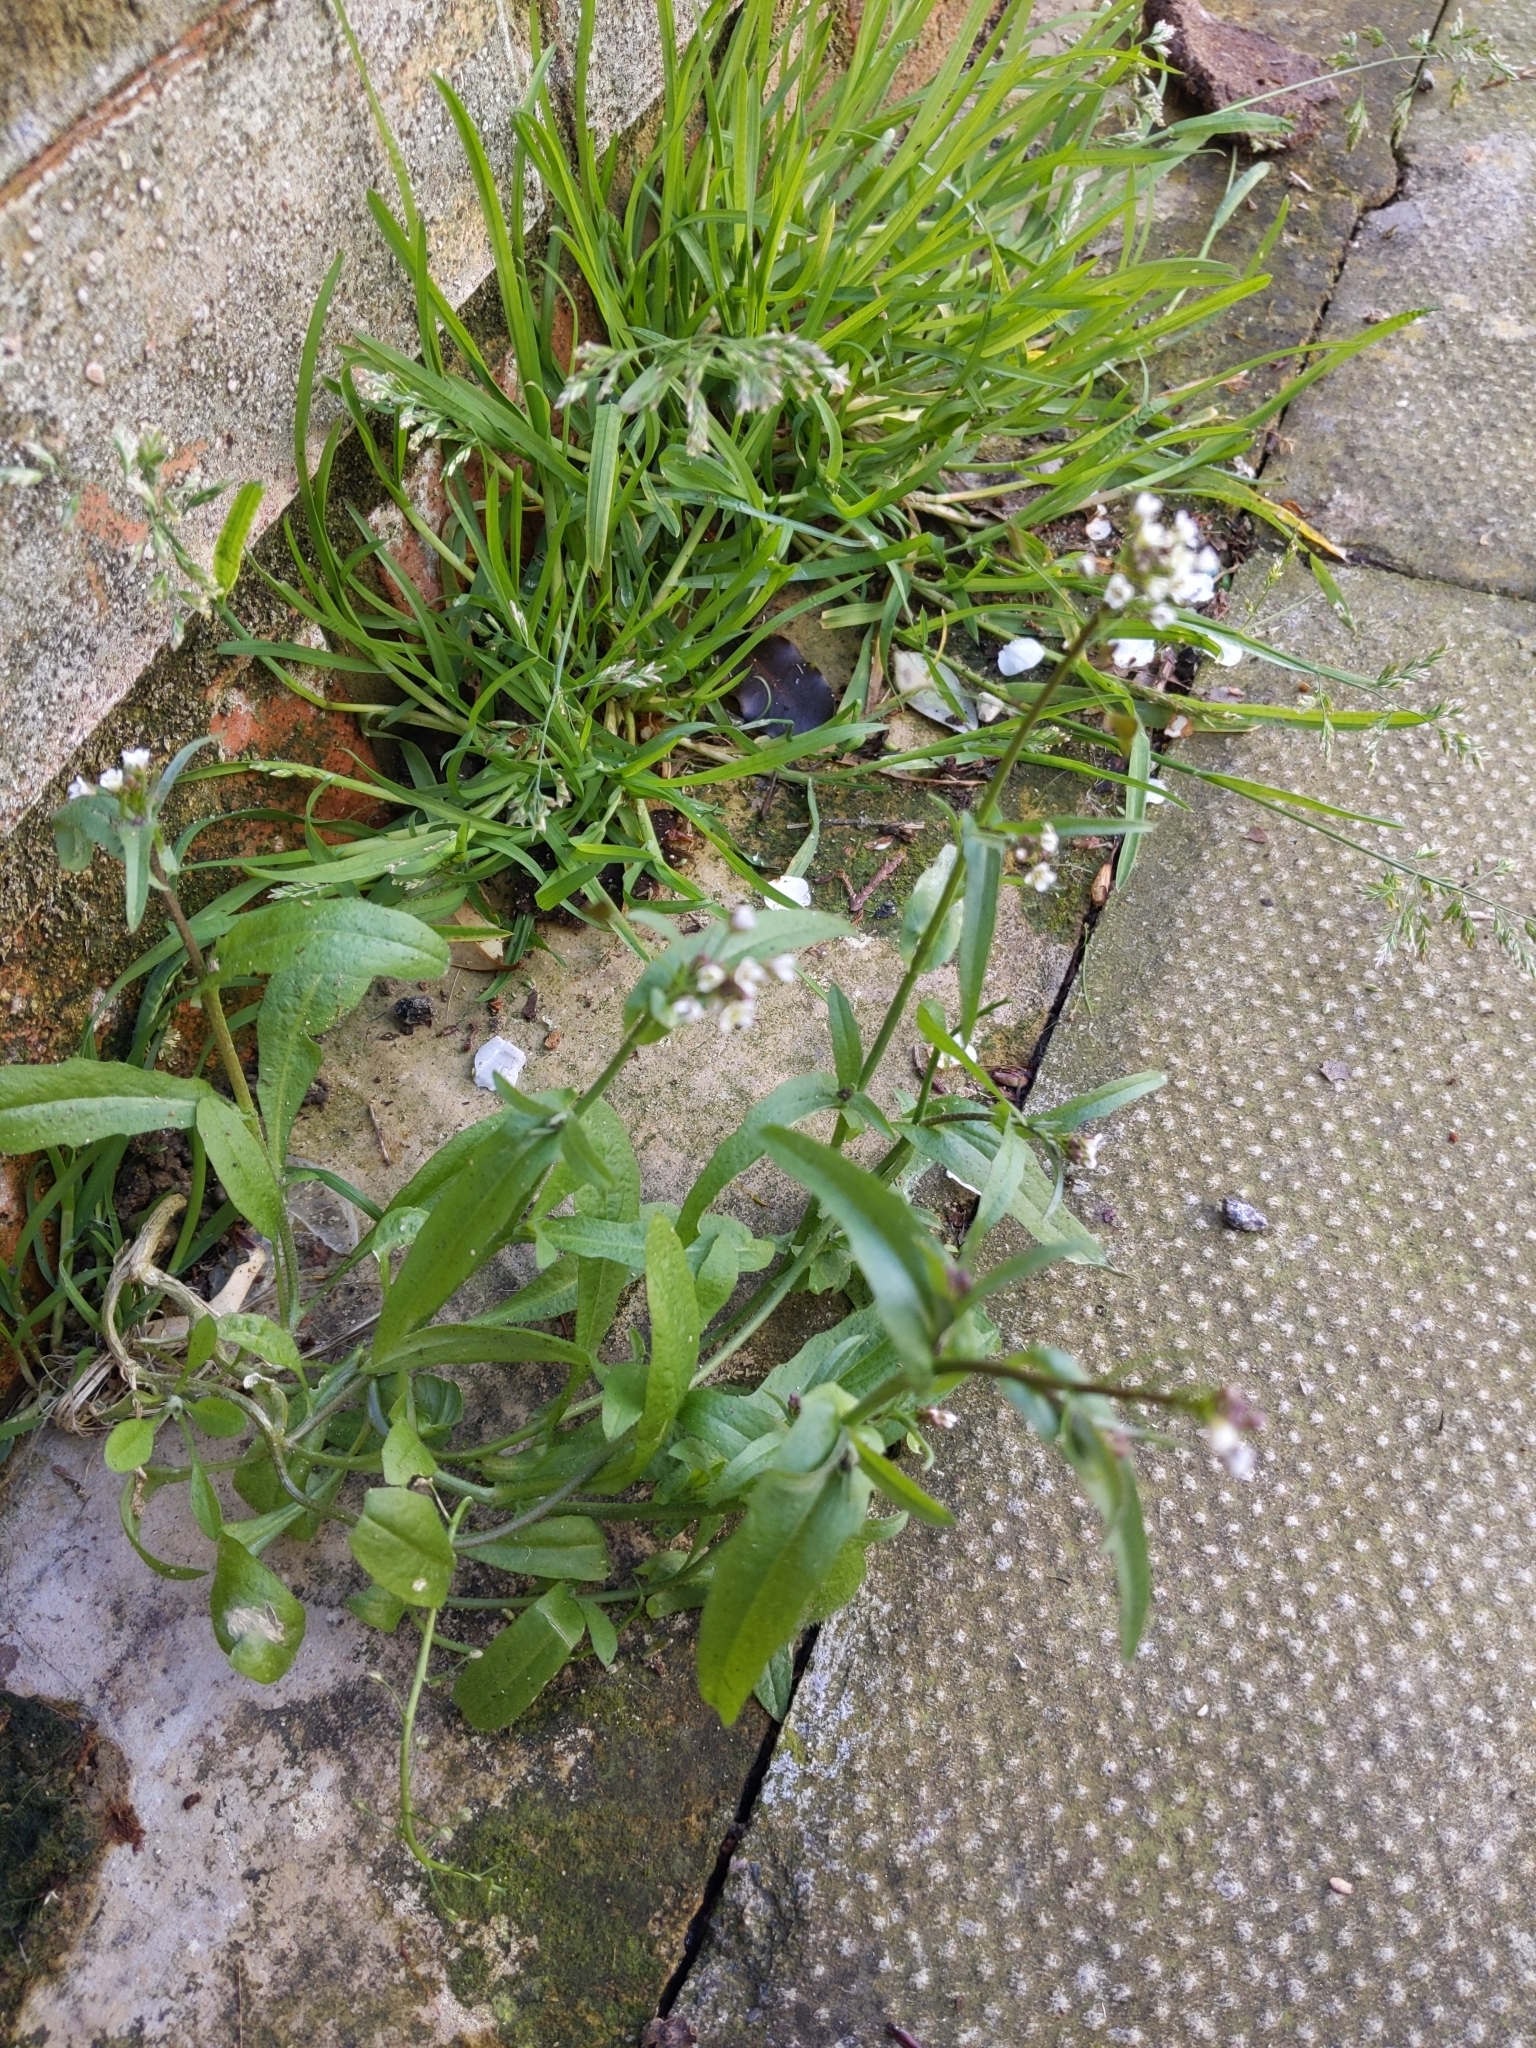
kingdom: Plantae
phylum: Tracheophyta
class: Magnoliopsida
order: Brassicales
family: Brassicaceae
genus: Capsella
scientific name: Capsella bursa-pastoris
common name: Shepherd's purse
